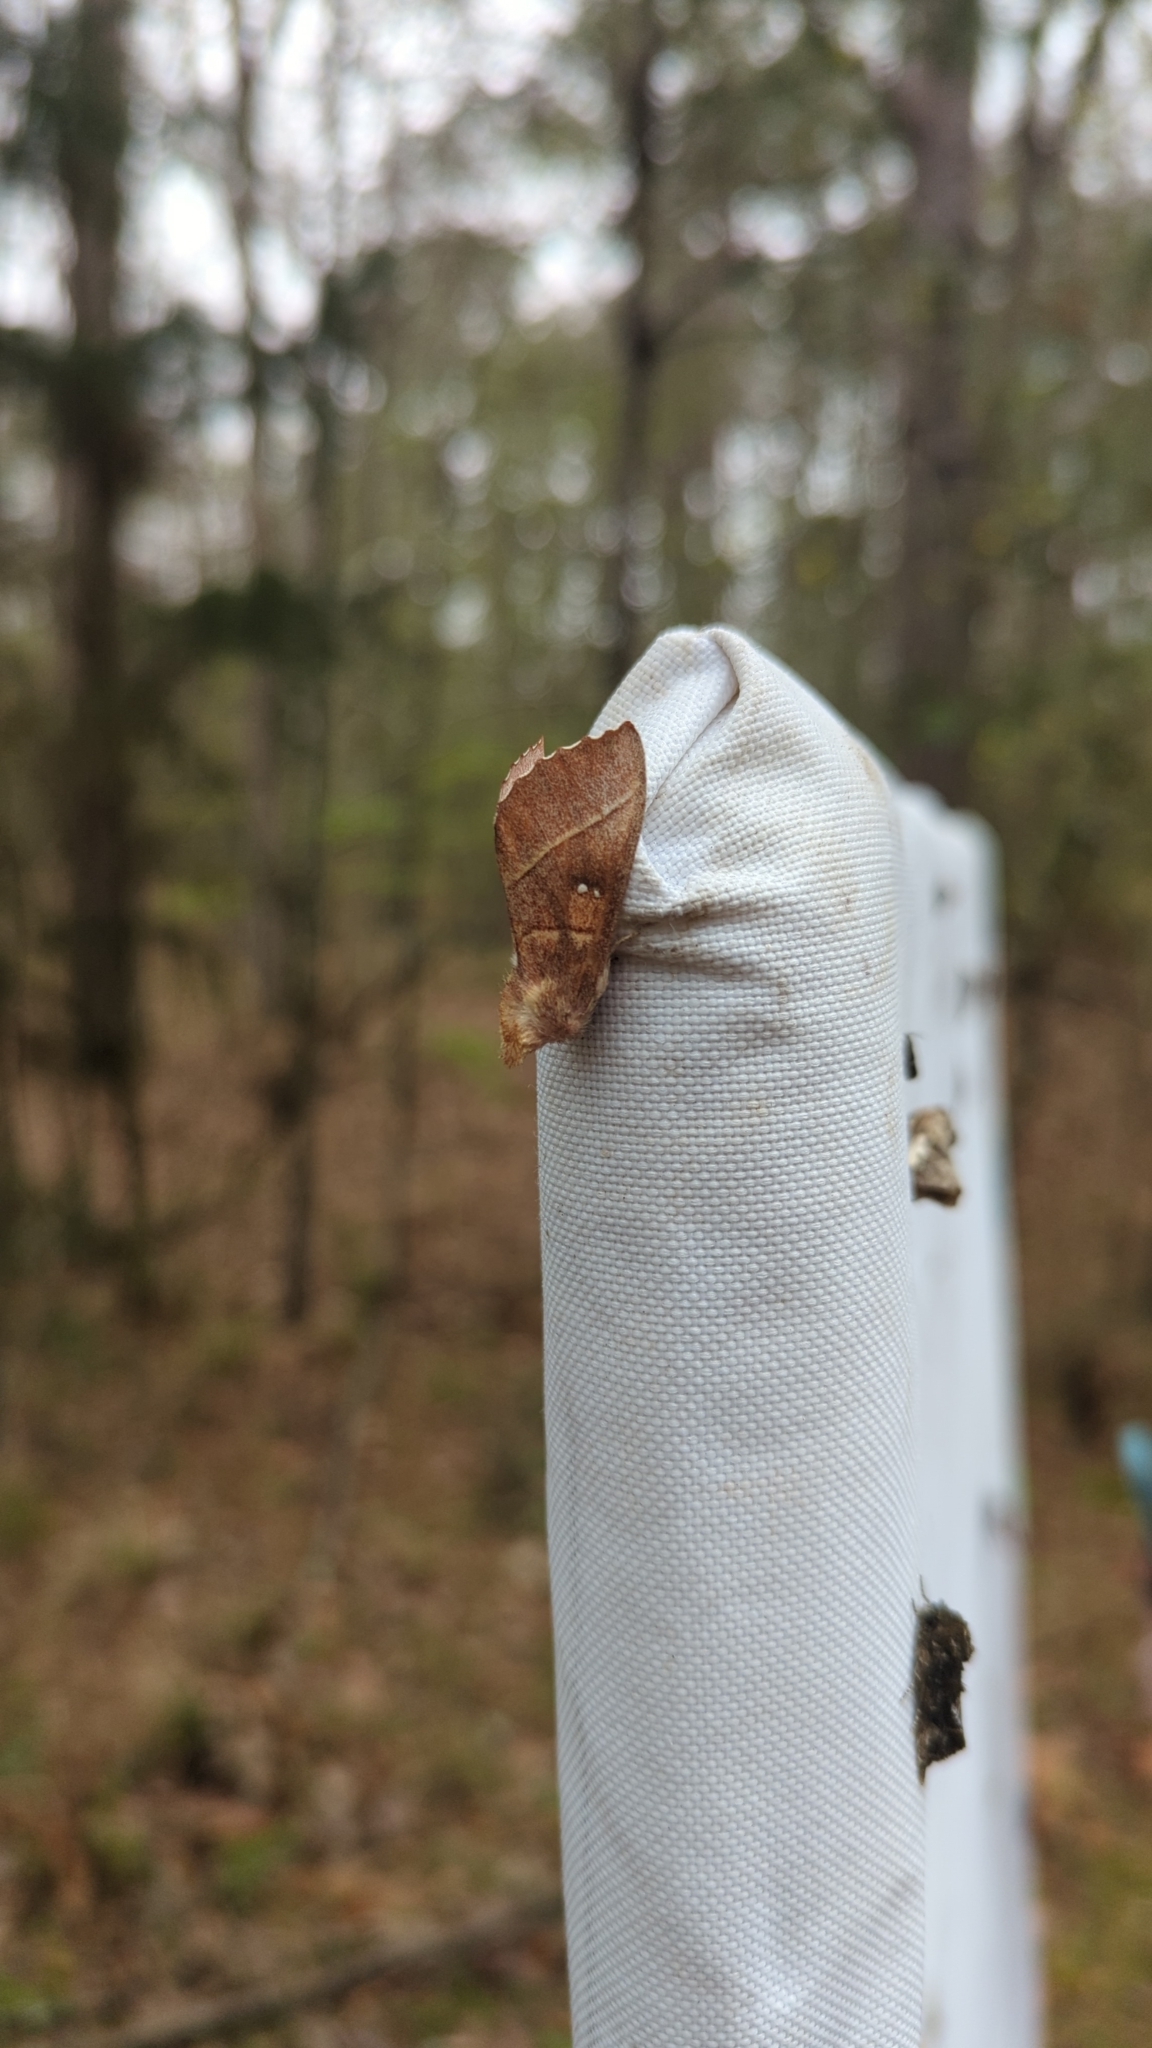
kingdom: Animalia
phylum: Arthropoda
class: Insecta
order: Lepidoptera
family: Notodontidae
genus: Nadata
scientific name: Nadata gibbosa
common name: White-dotted prominent
